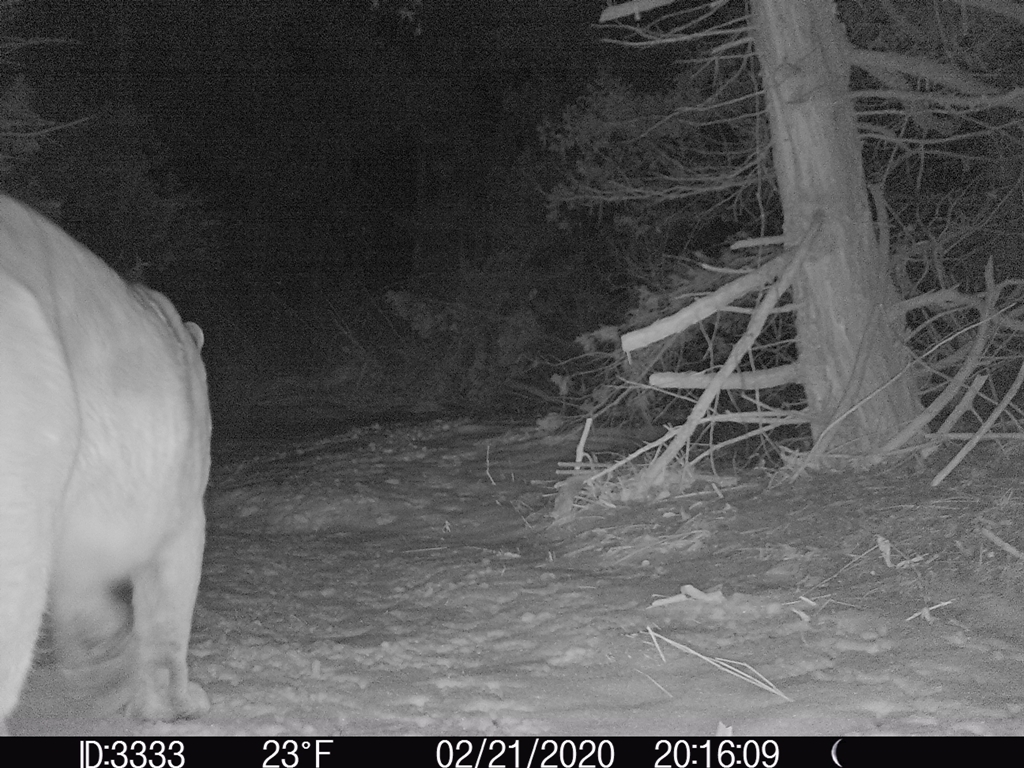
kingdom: Animalia
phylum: Chordata
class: Mammalia
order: Carnivora
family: Felidae
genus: Puma
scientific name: Puma concolor
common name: Puma
